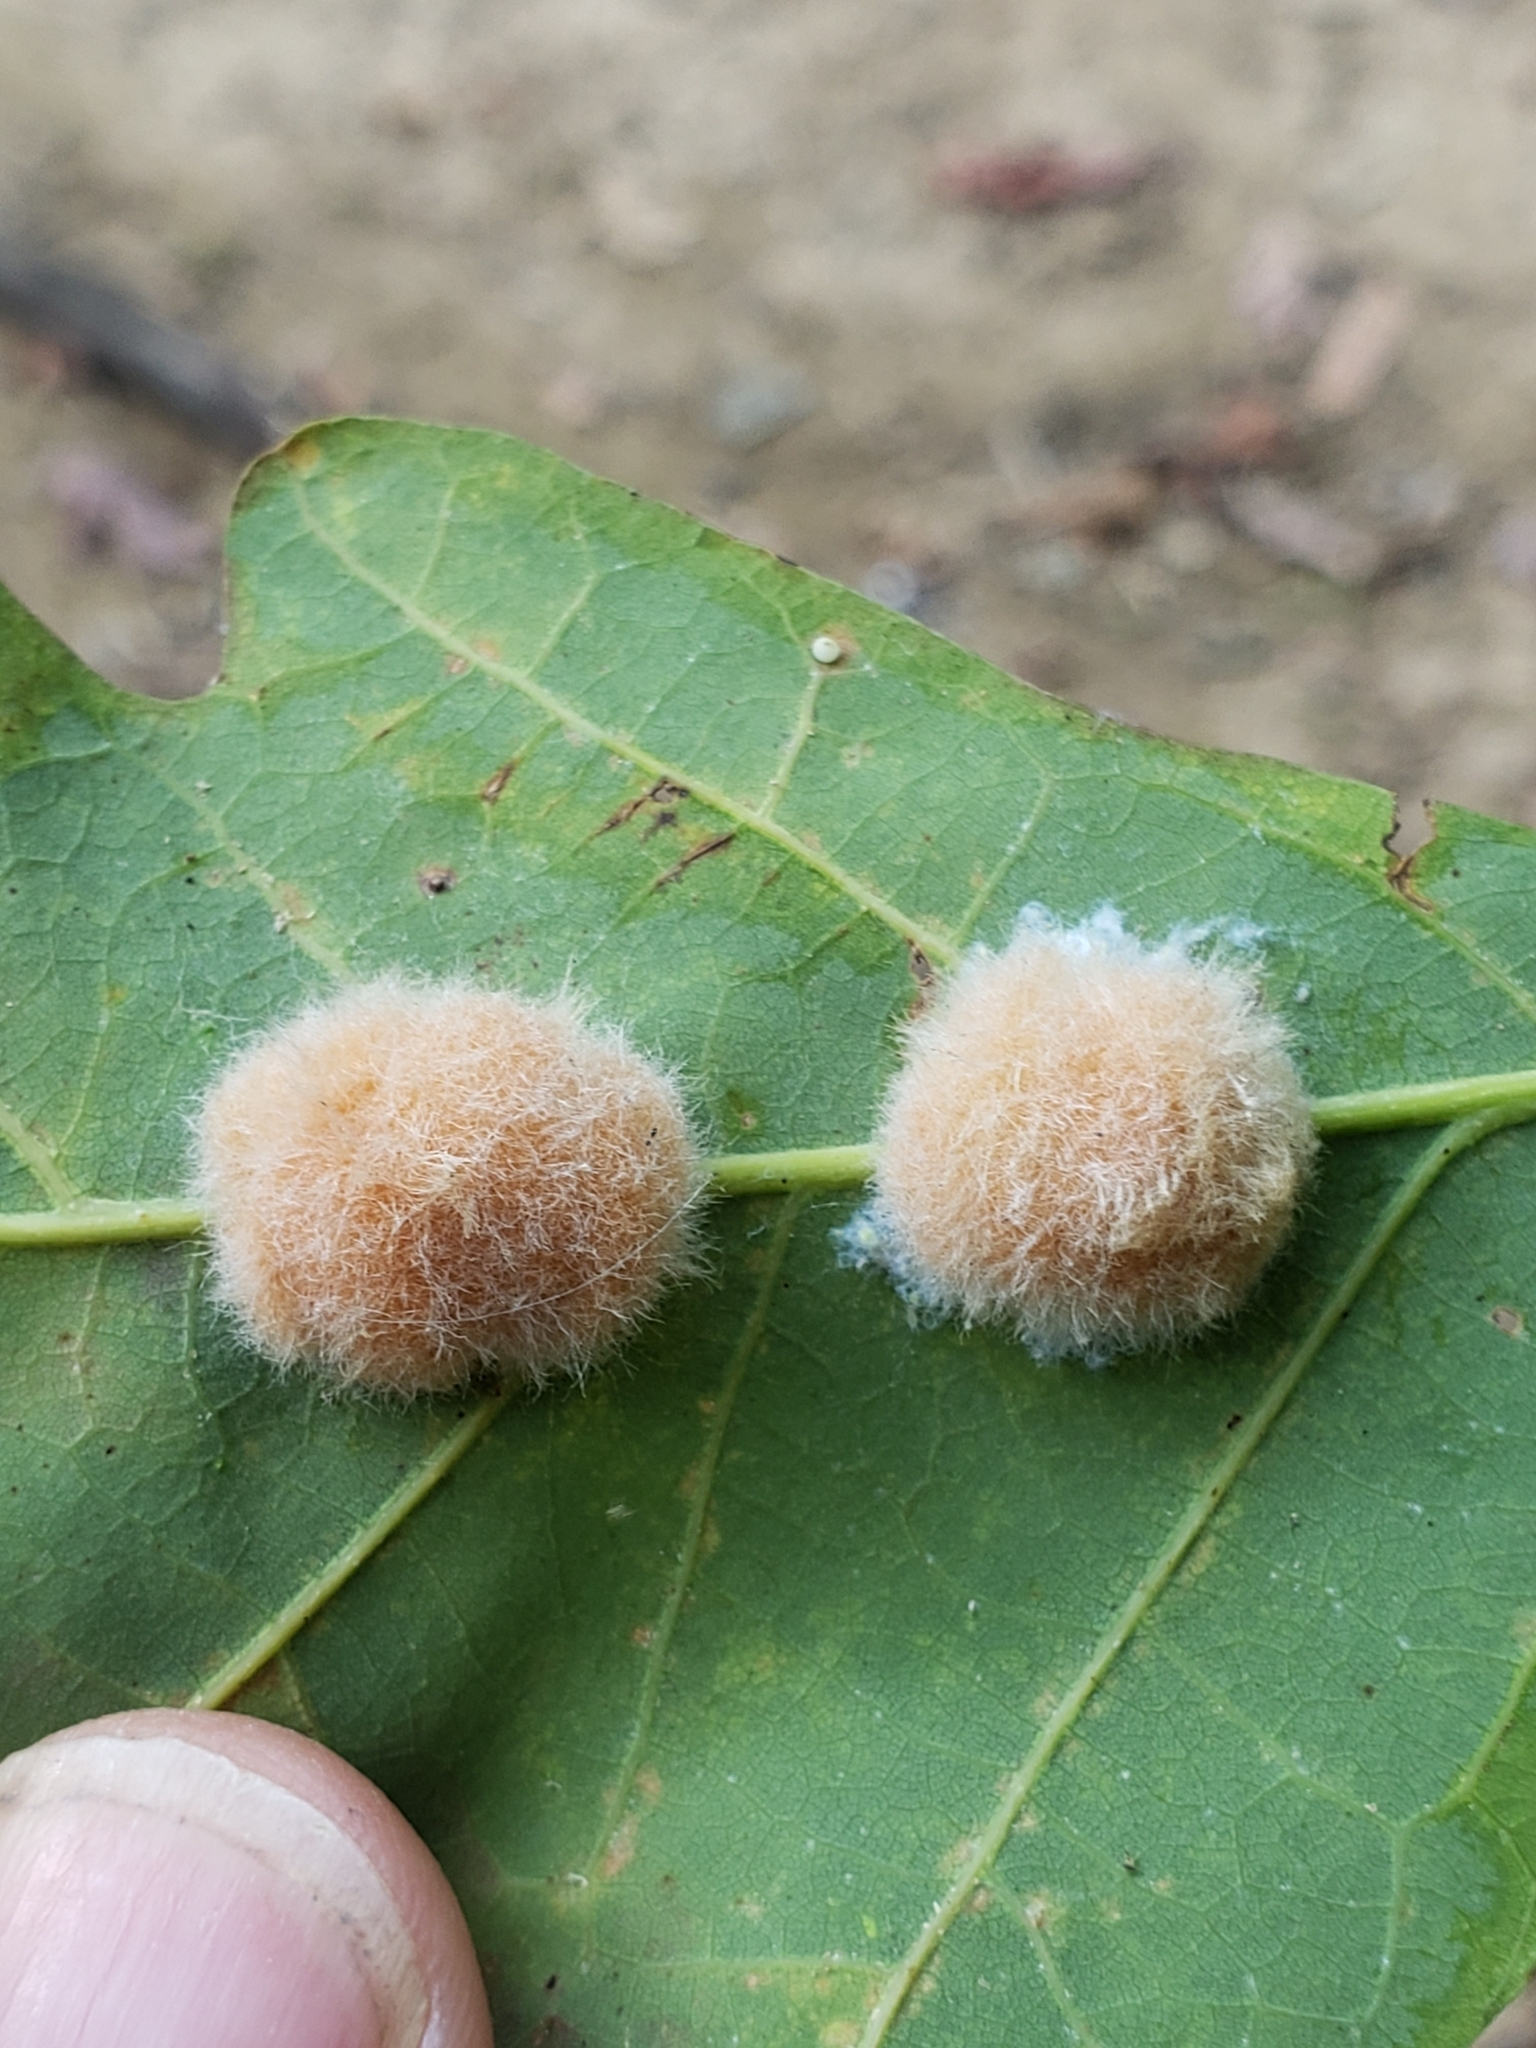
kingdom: Animalia
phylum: Arthropoda
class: Insecta
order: Hymenoptera
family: Cynipidae
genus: Andricus
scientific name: Andricus quercusflocci
